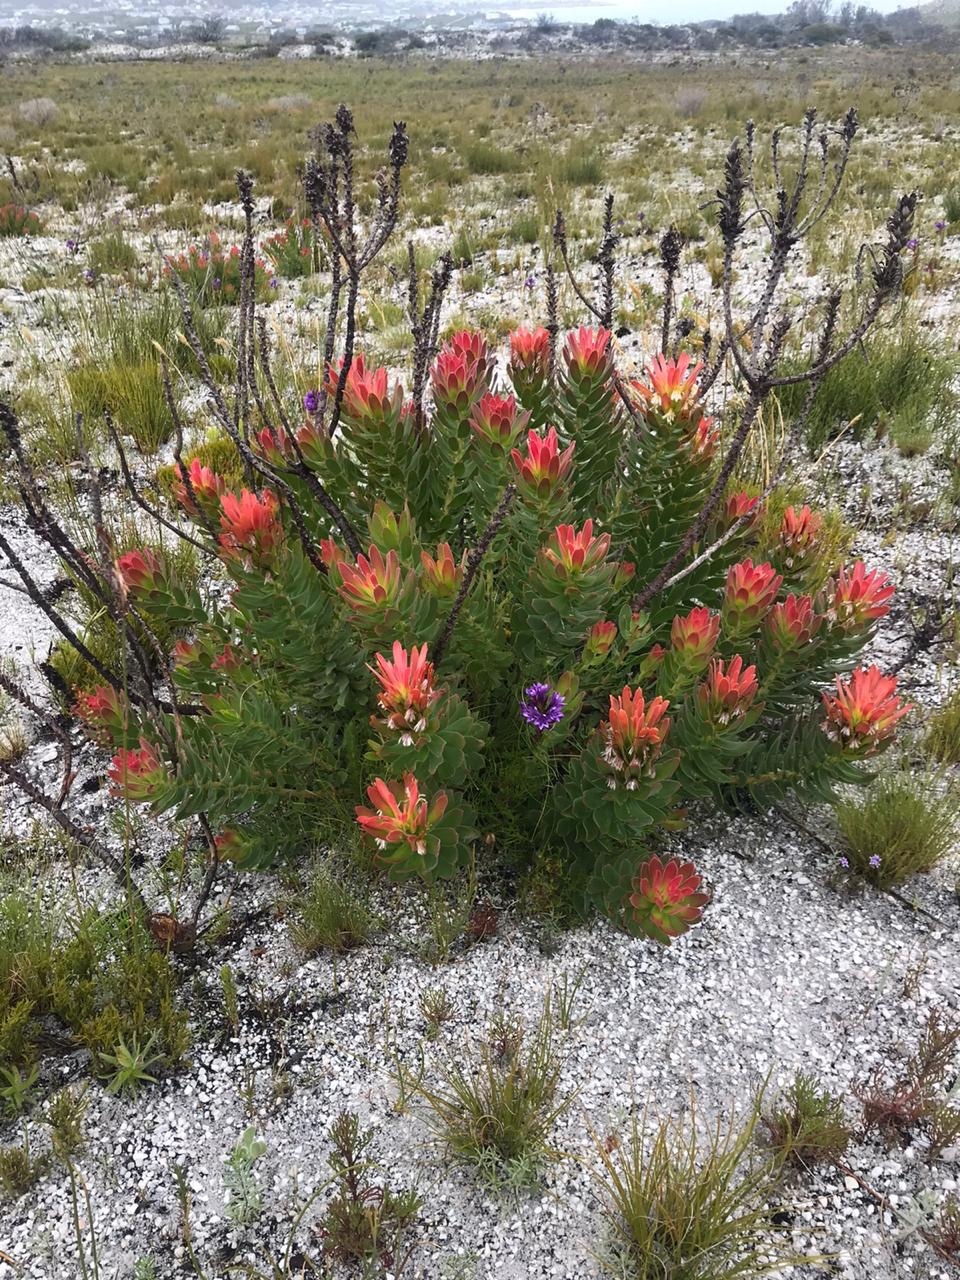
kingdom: Plantae
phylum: Tracheophyta
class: Magnoliopsida
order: Proteales
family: Proteaceae
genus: Mimetes
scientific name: Mimetes cucullatus
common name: Common pagoda
